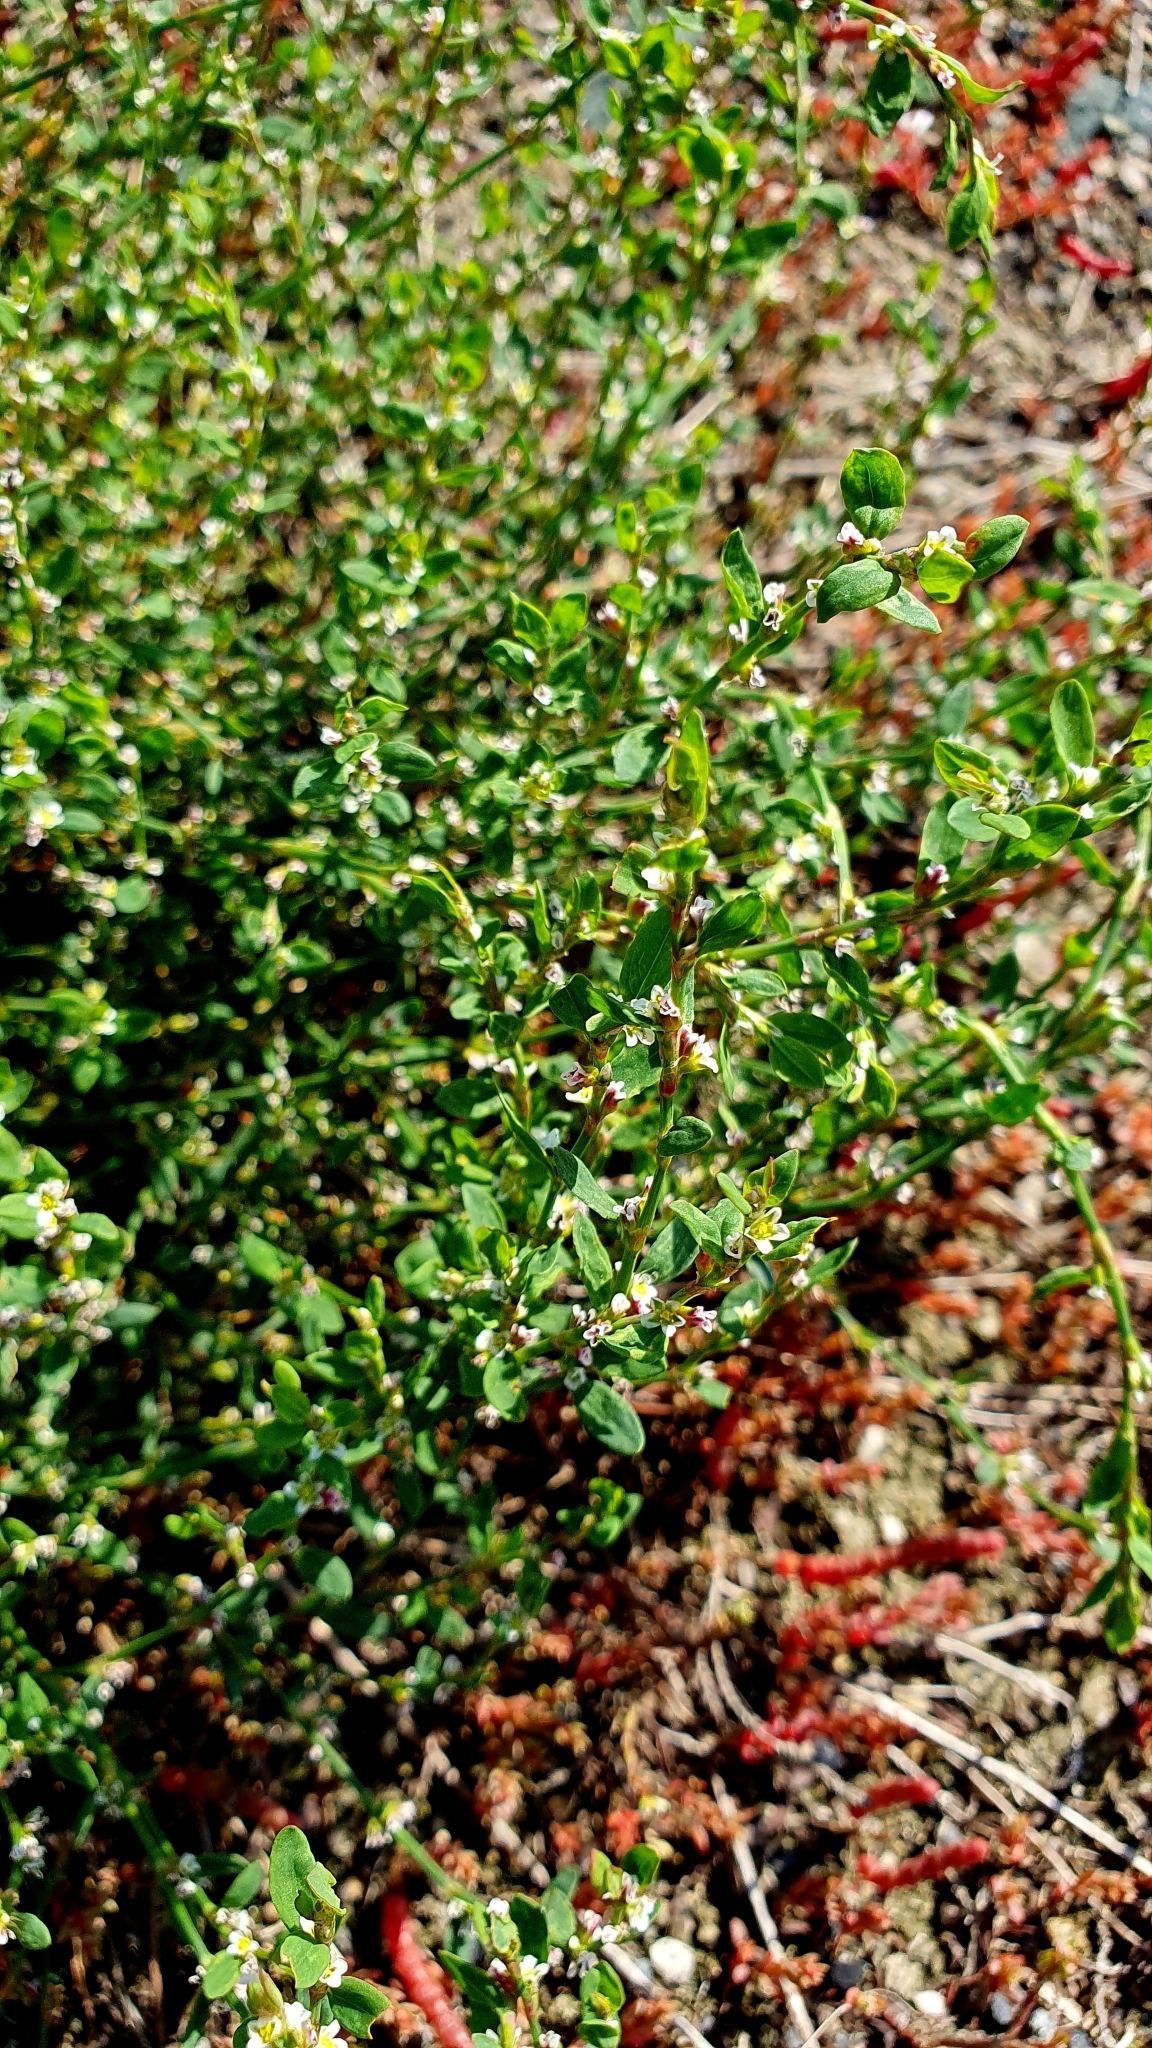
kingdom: Plantae
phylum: Tracheophyta
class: Magnoliopsida
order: Caryophyllales
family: Polygonaceae
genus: Polygonum
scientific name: Polygonum arenastrum
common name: Equal-leaved knotgrass
